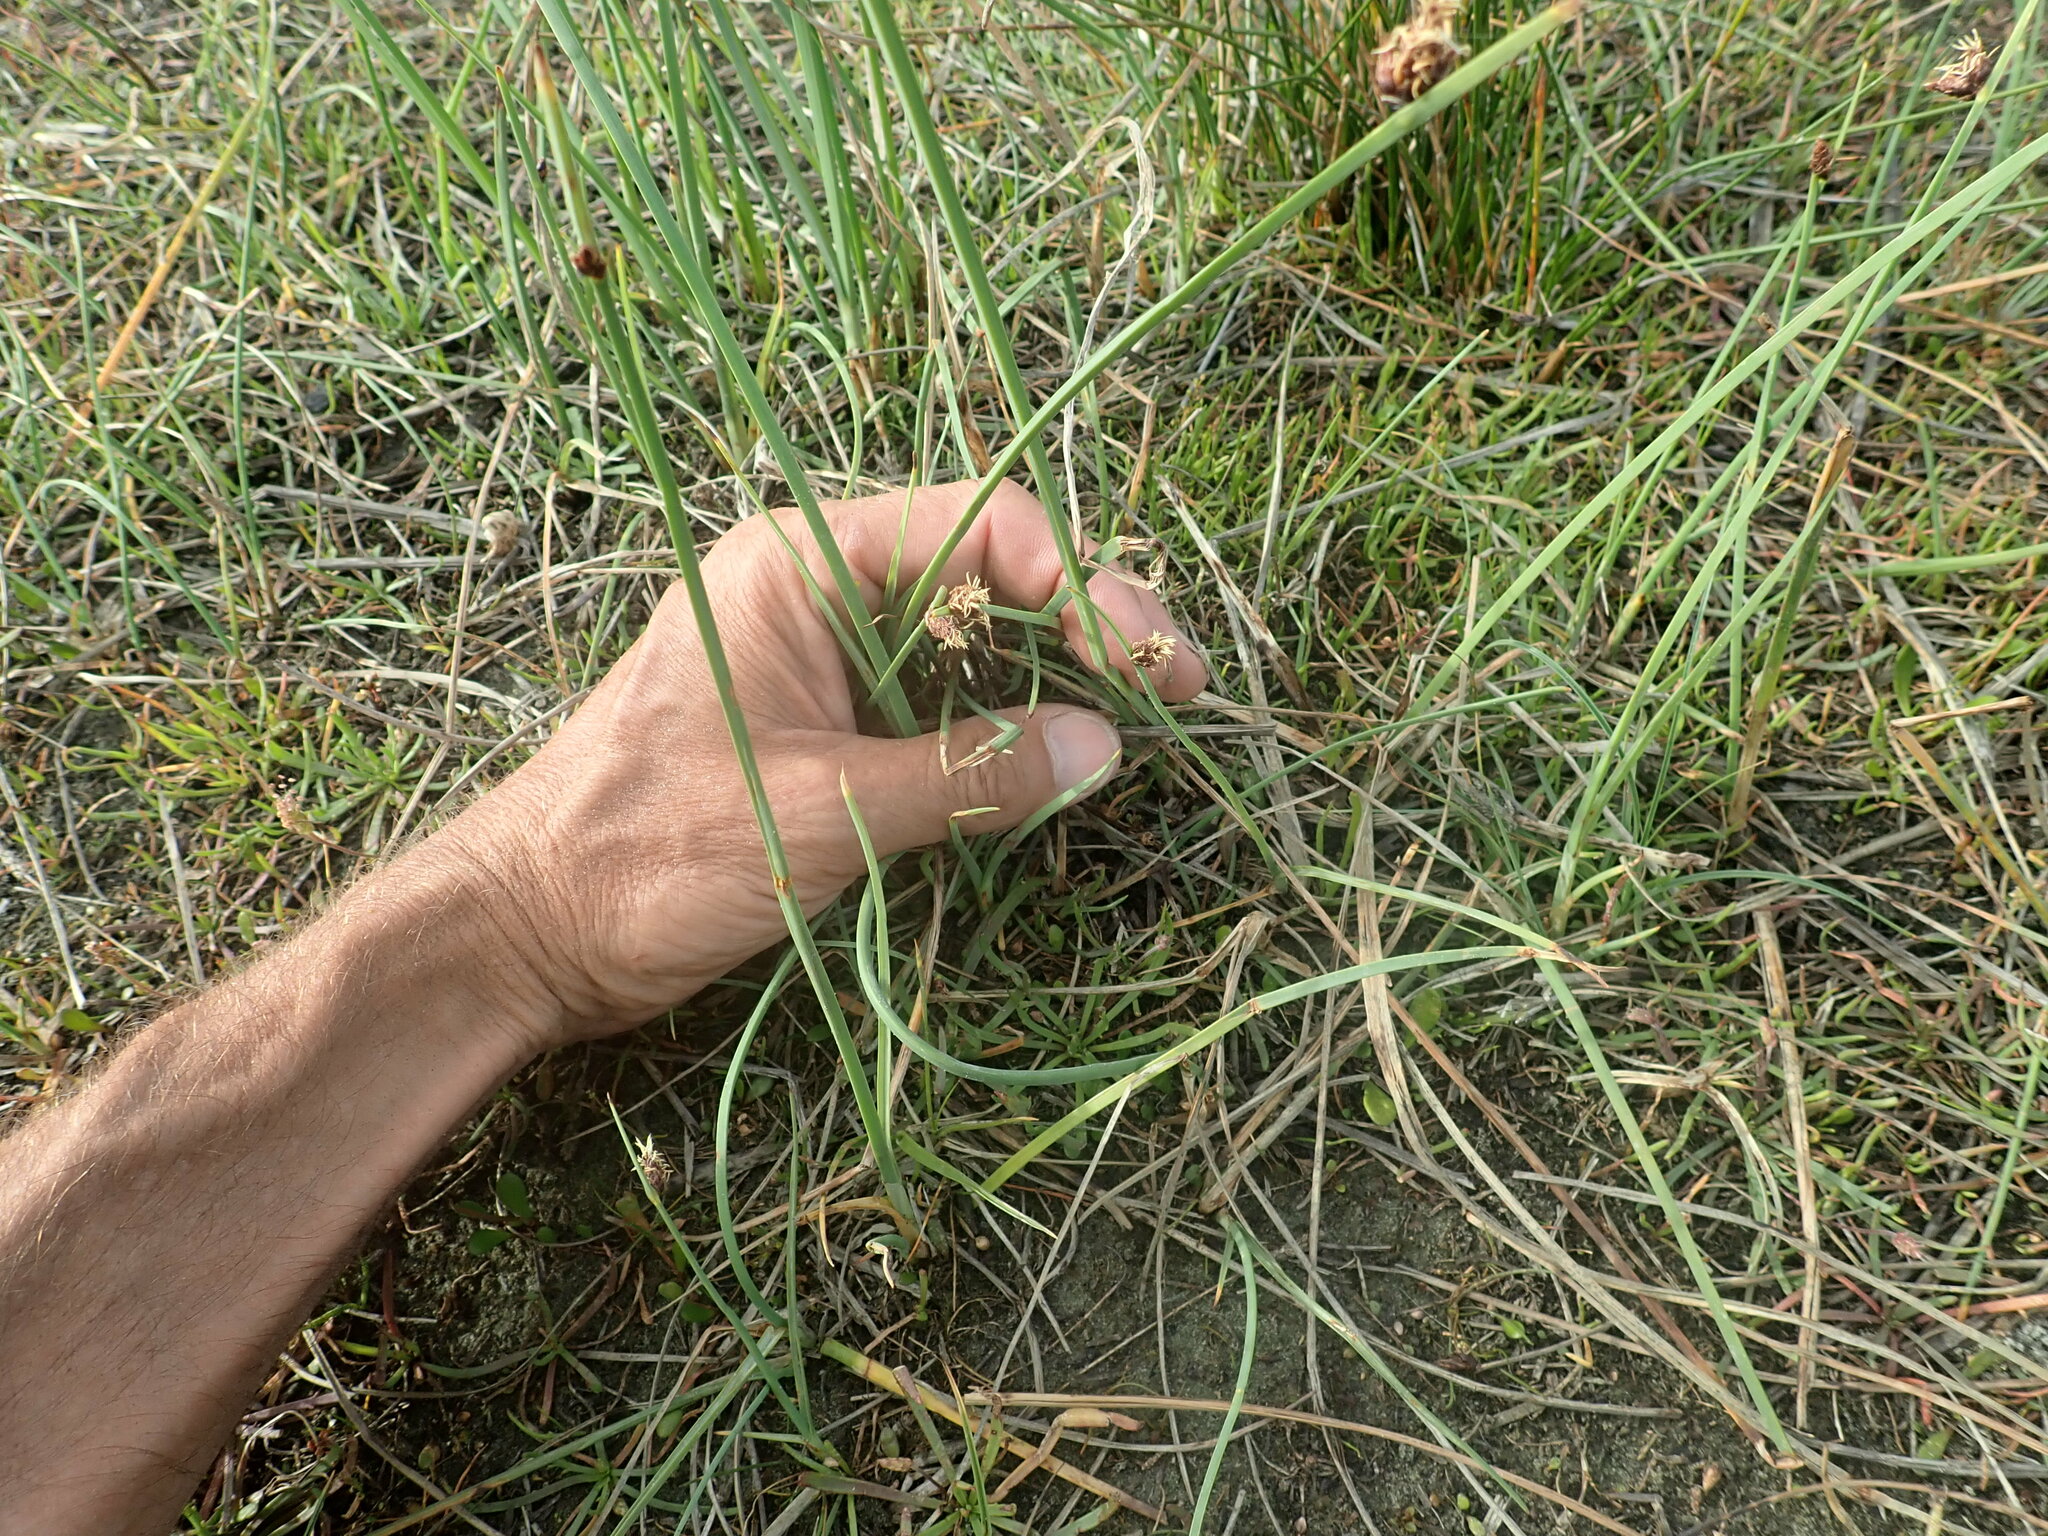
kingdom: Plantae
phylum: Tracheophyta
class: Liliopsida
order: Poales
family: Cyperaceae
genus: Schoenoplectus
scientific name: Schoenoplectus pungens
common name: Sharp club-rush
